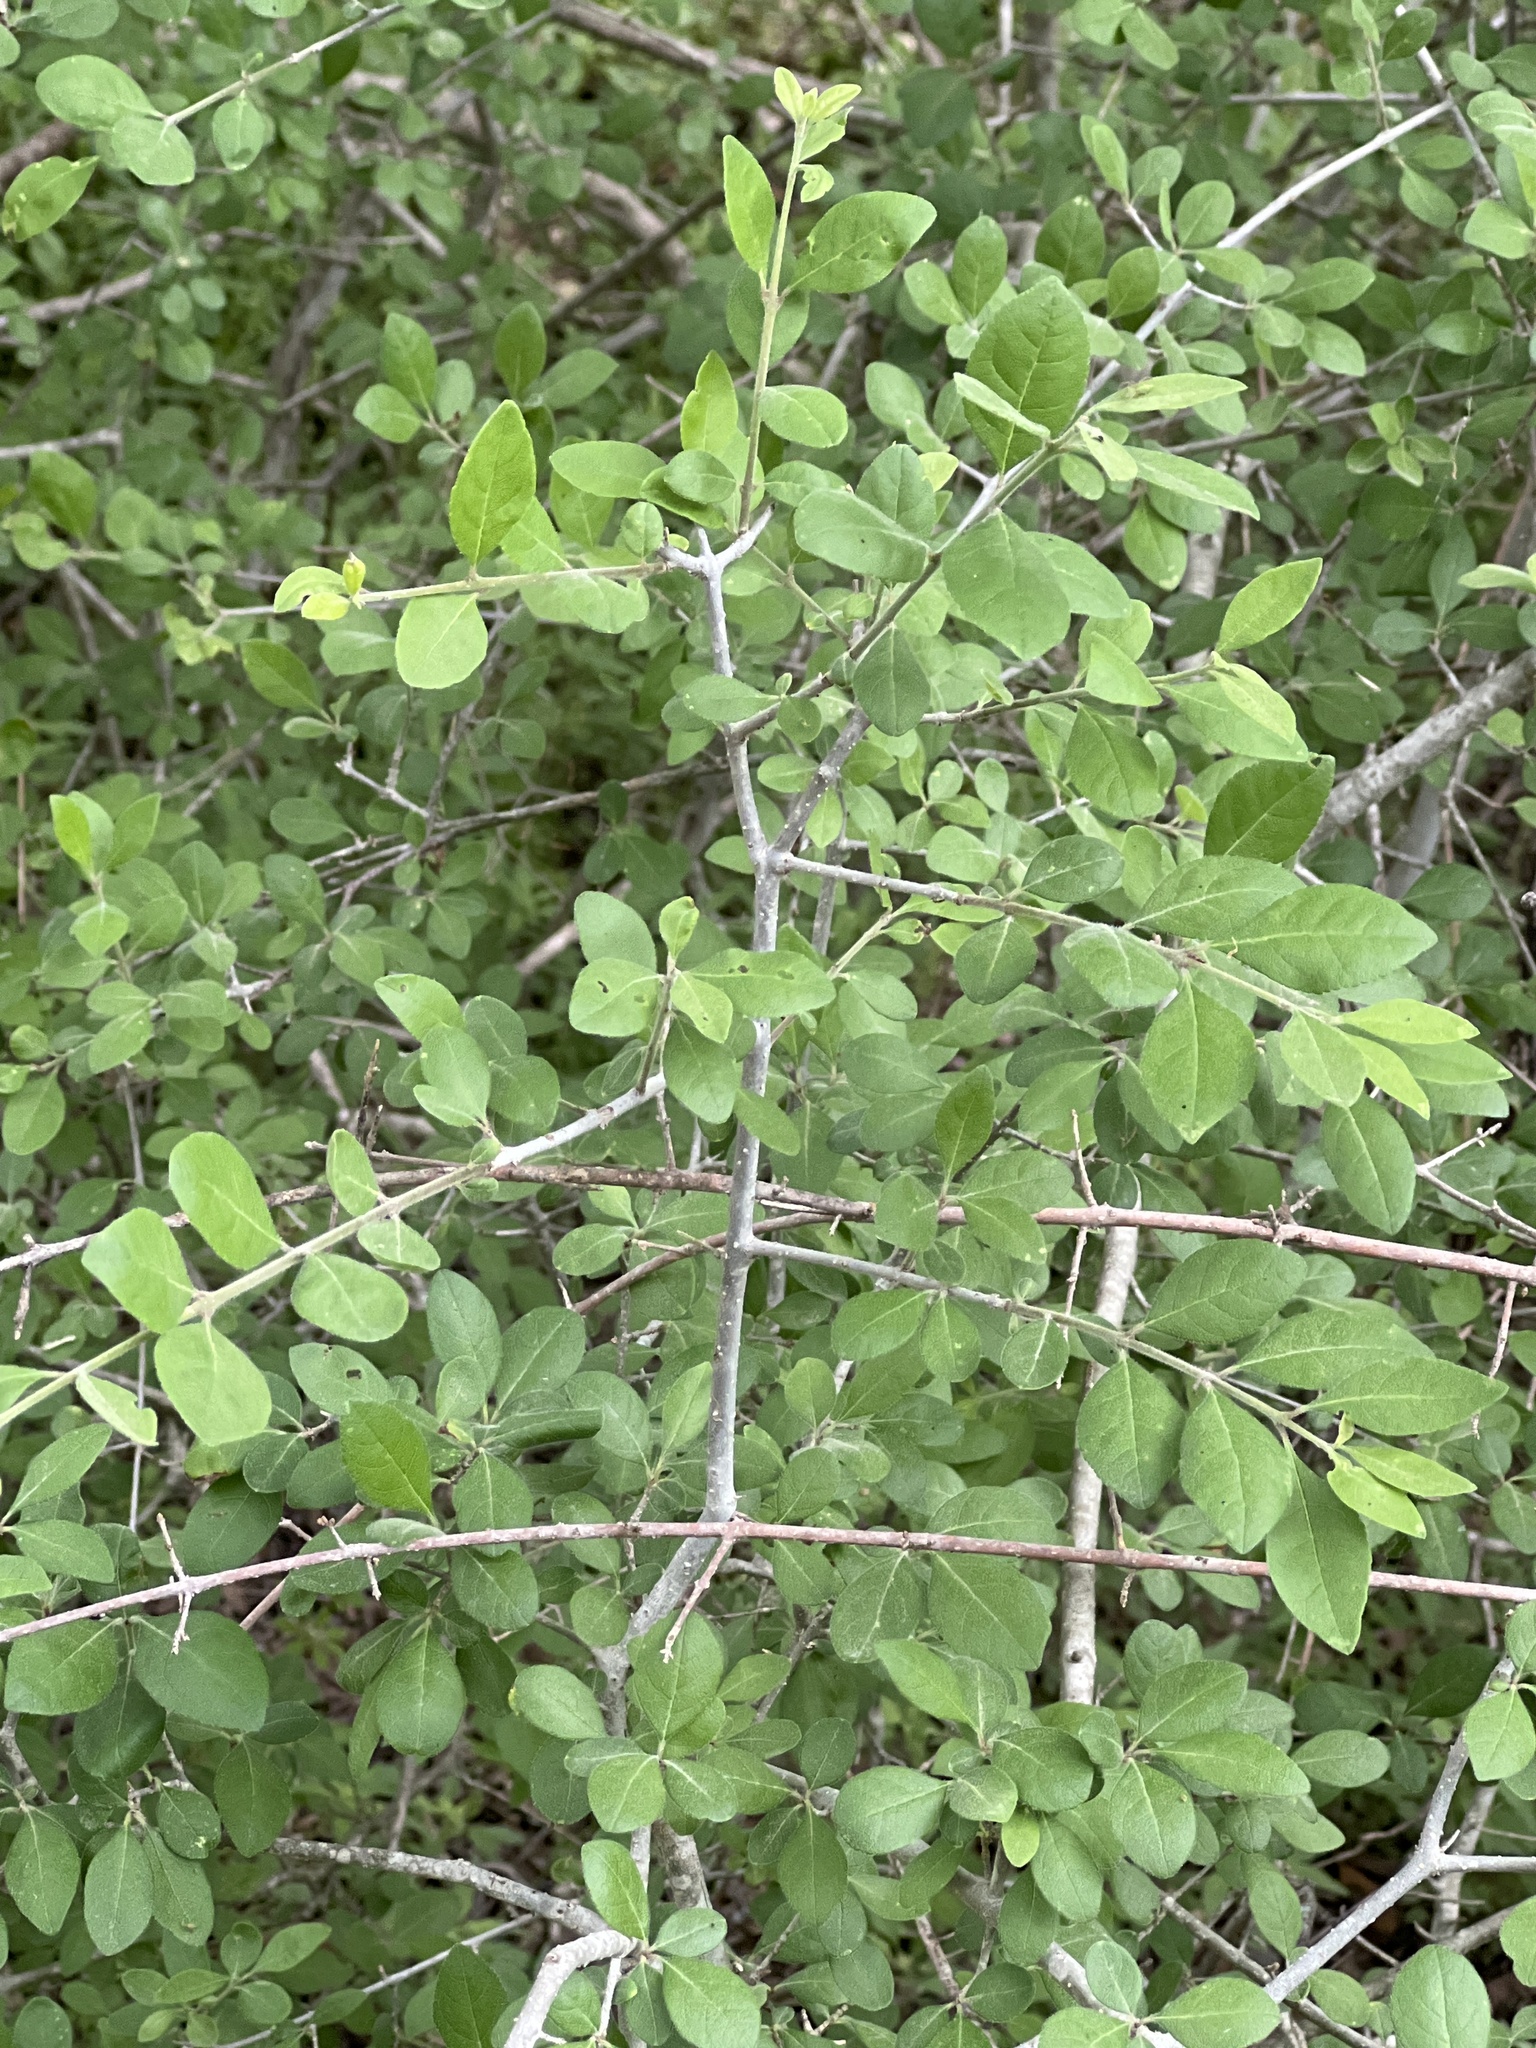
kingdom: Plantae
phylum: Tracheophyta
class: Magnoliopsida
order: Lamiales
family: Oleaceae
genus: Forestiera
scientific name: Forestiera pubescens
